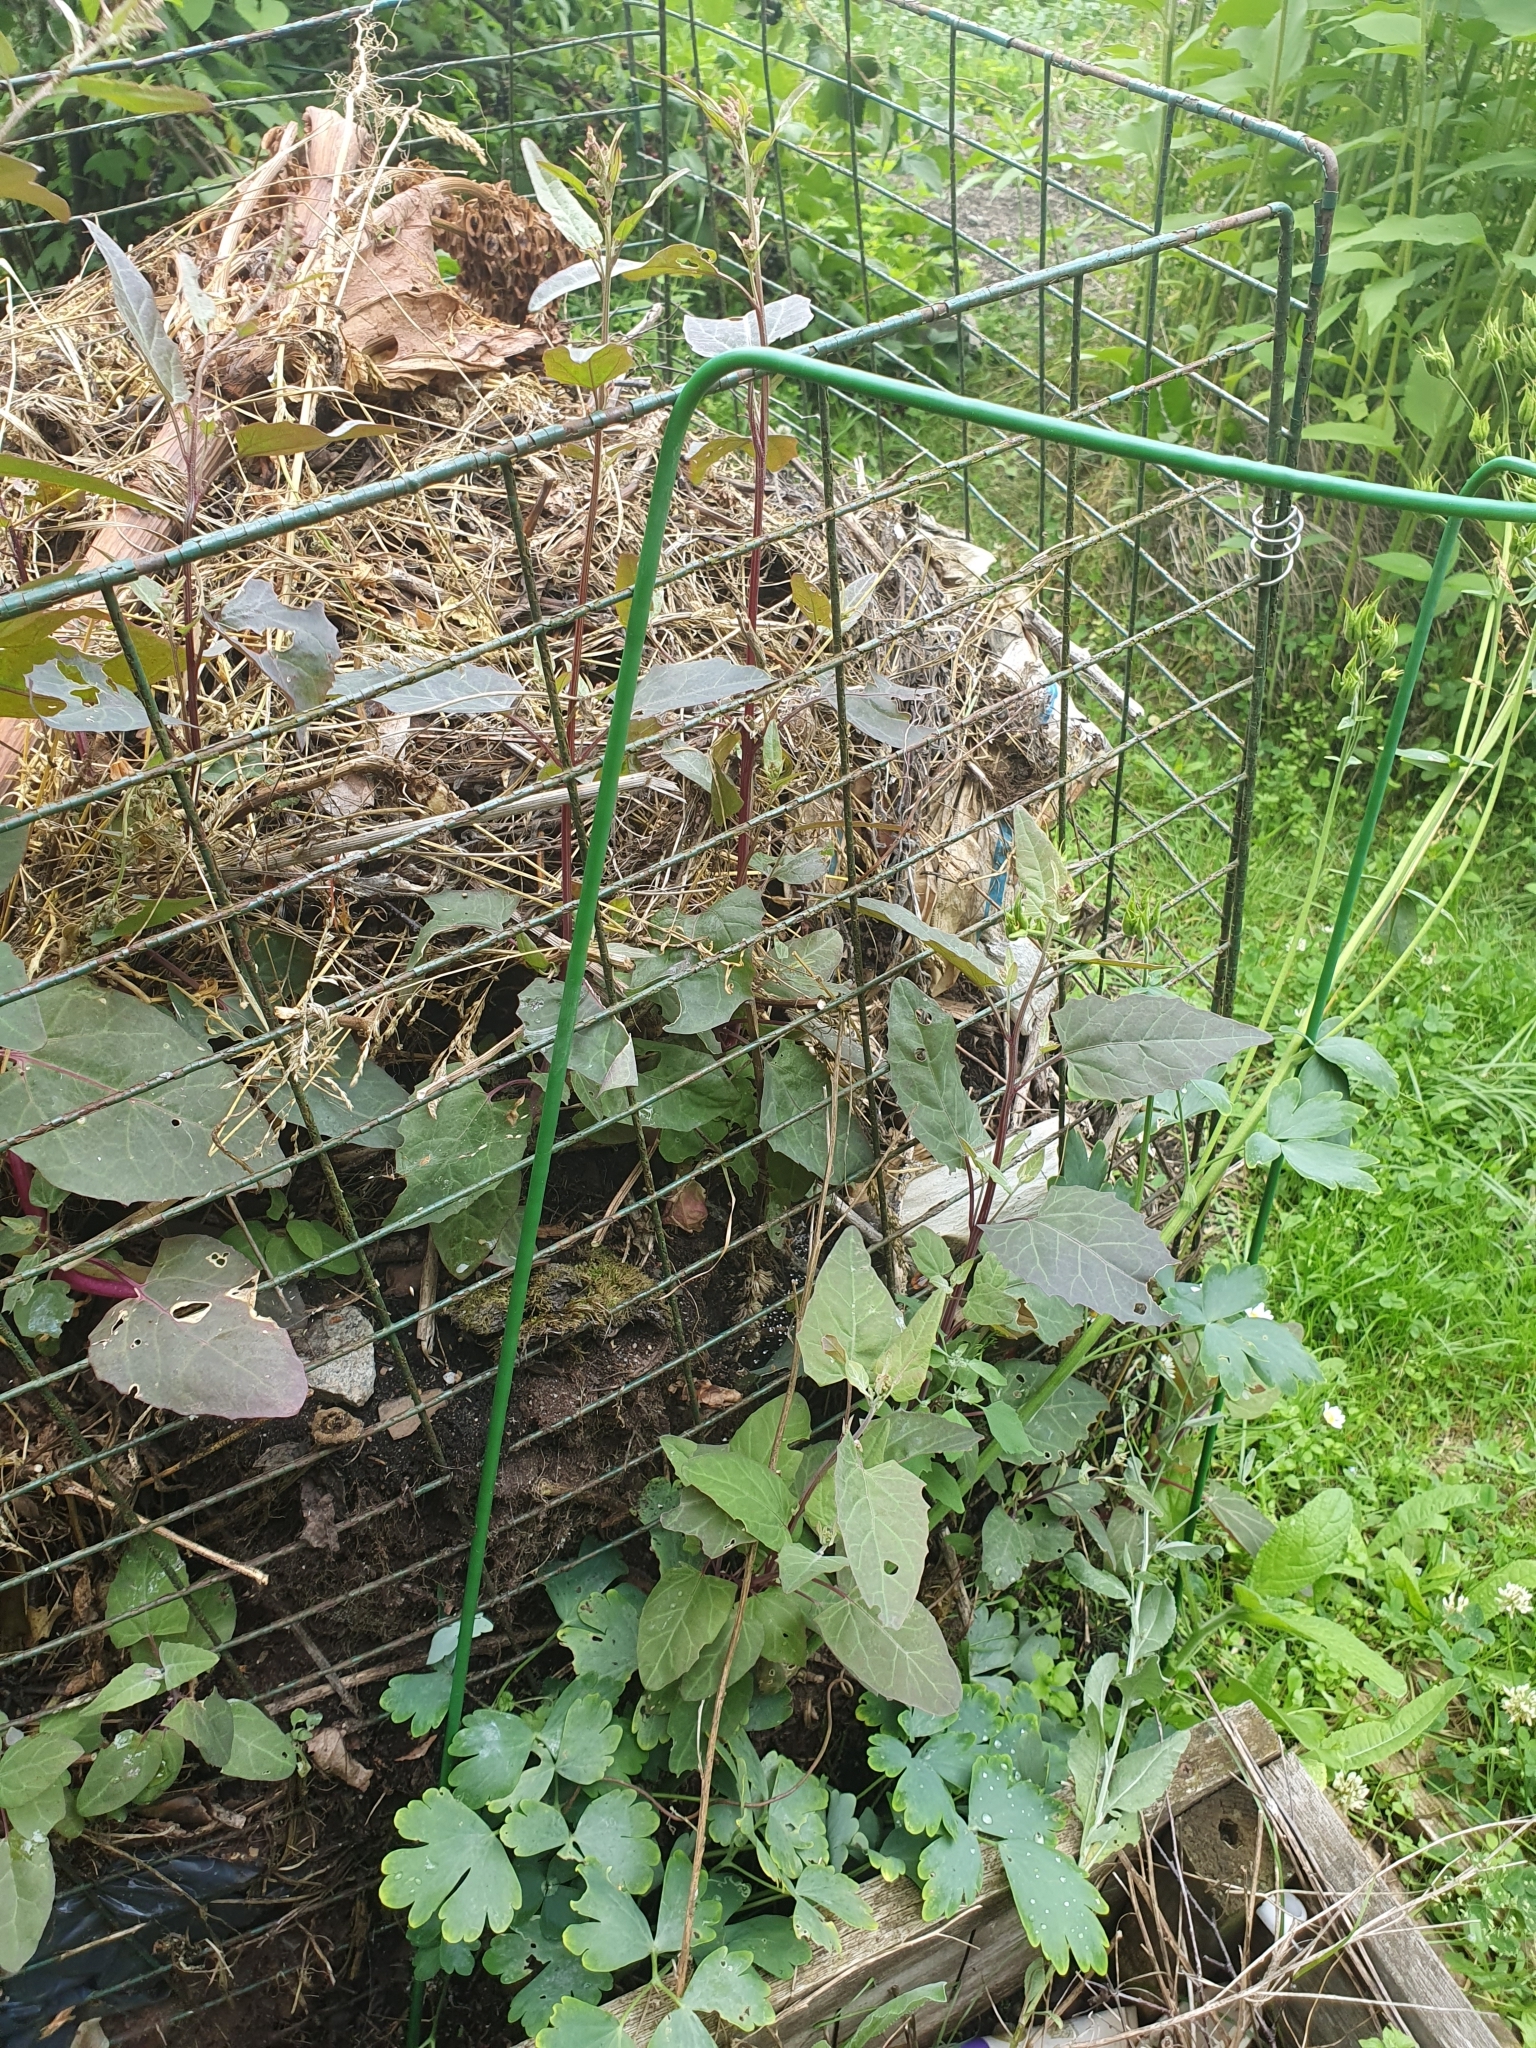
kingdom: Plantae
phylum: Tracheophyta
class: Magnoliopsida
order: Caryophyllales
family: Amaranthaceae
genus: Atriplex
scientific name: Atriplex hortensis
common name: Garden orache
